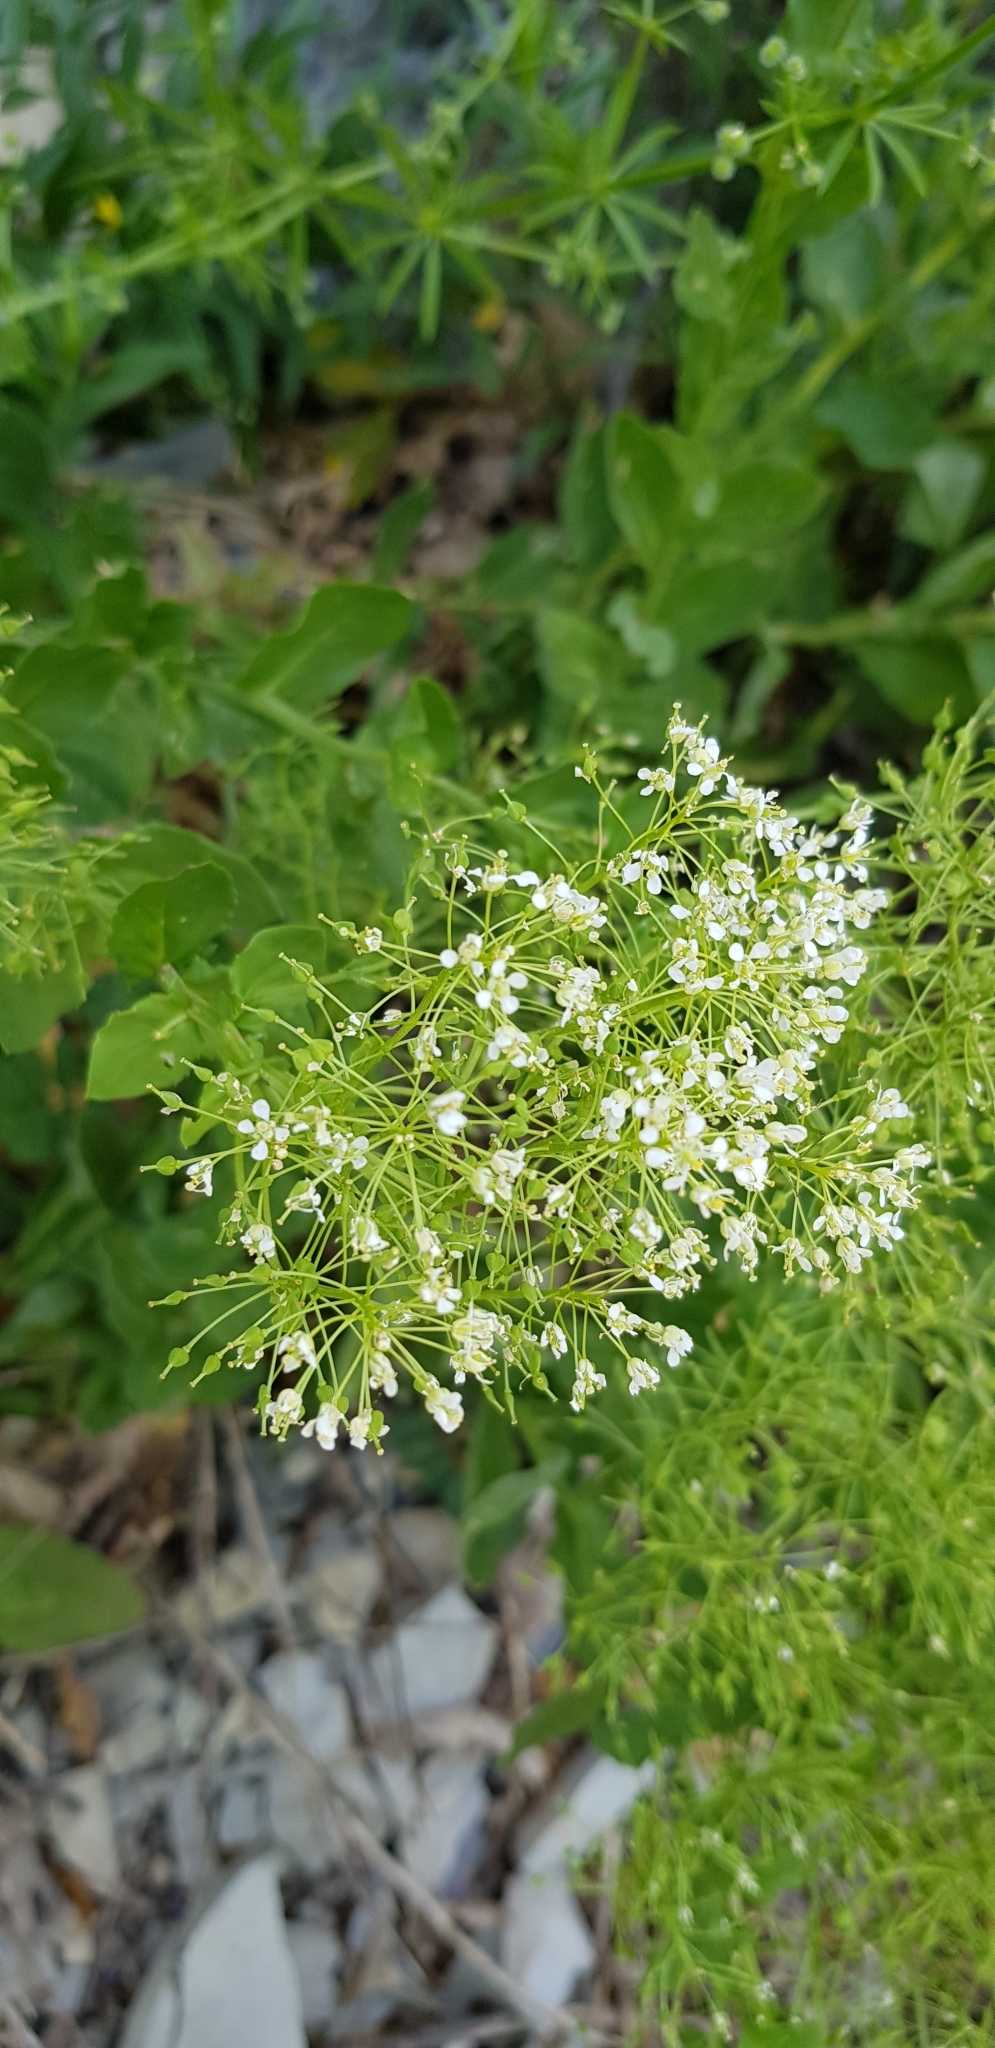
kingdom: Plantae
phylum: Tracheophyta
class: Magnoliopsida
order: Brassicales
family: Brassicaceae
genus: Lepidium
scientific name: Lepidium draba
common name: Hoary cress
